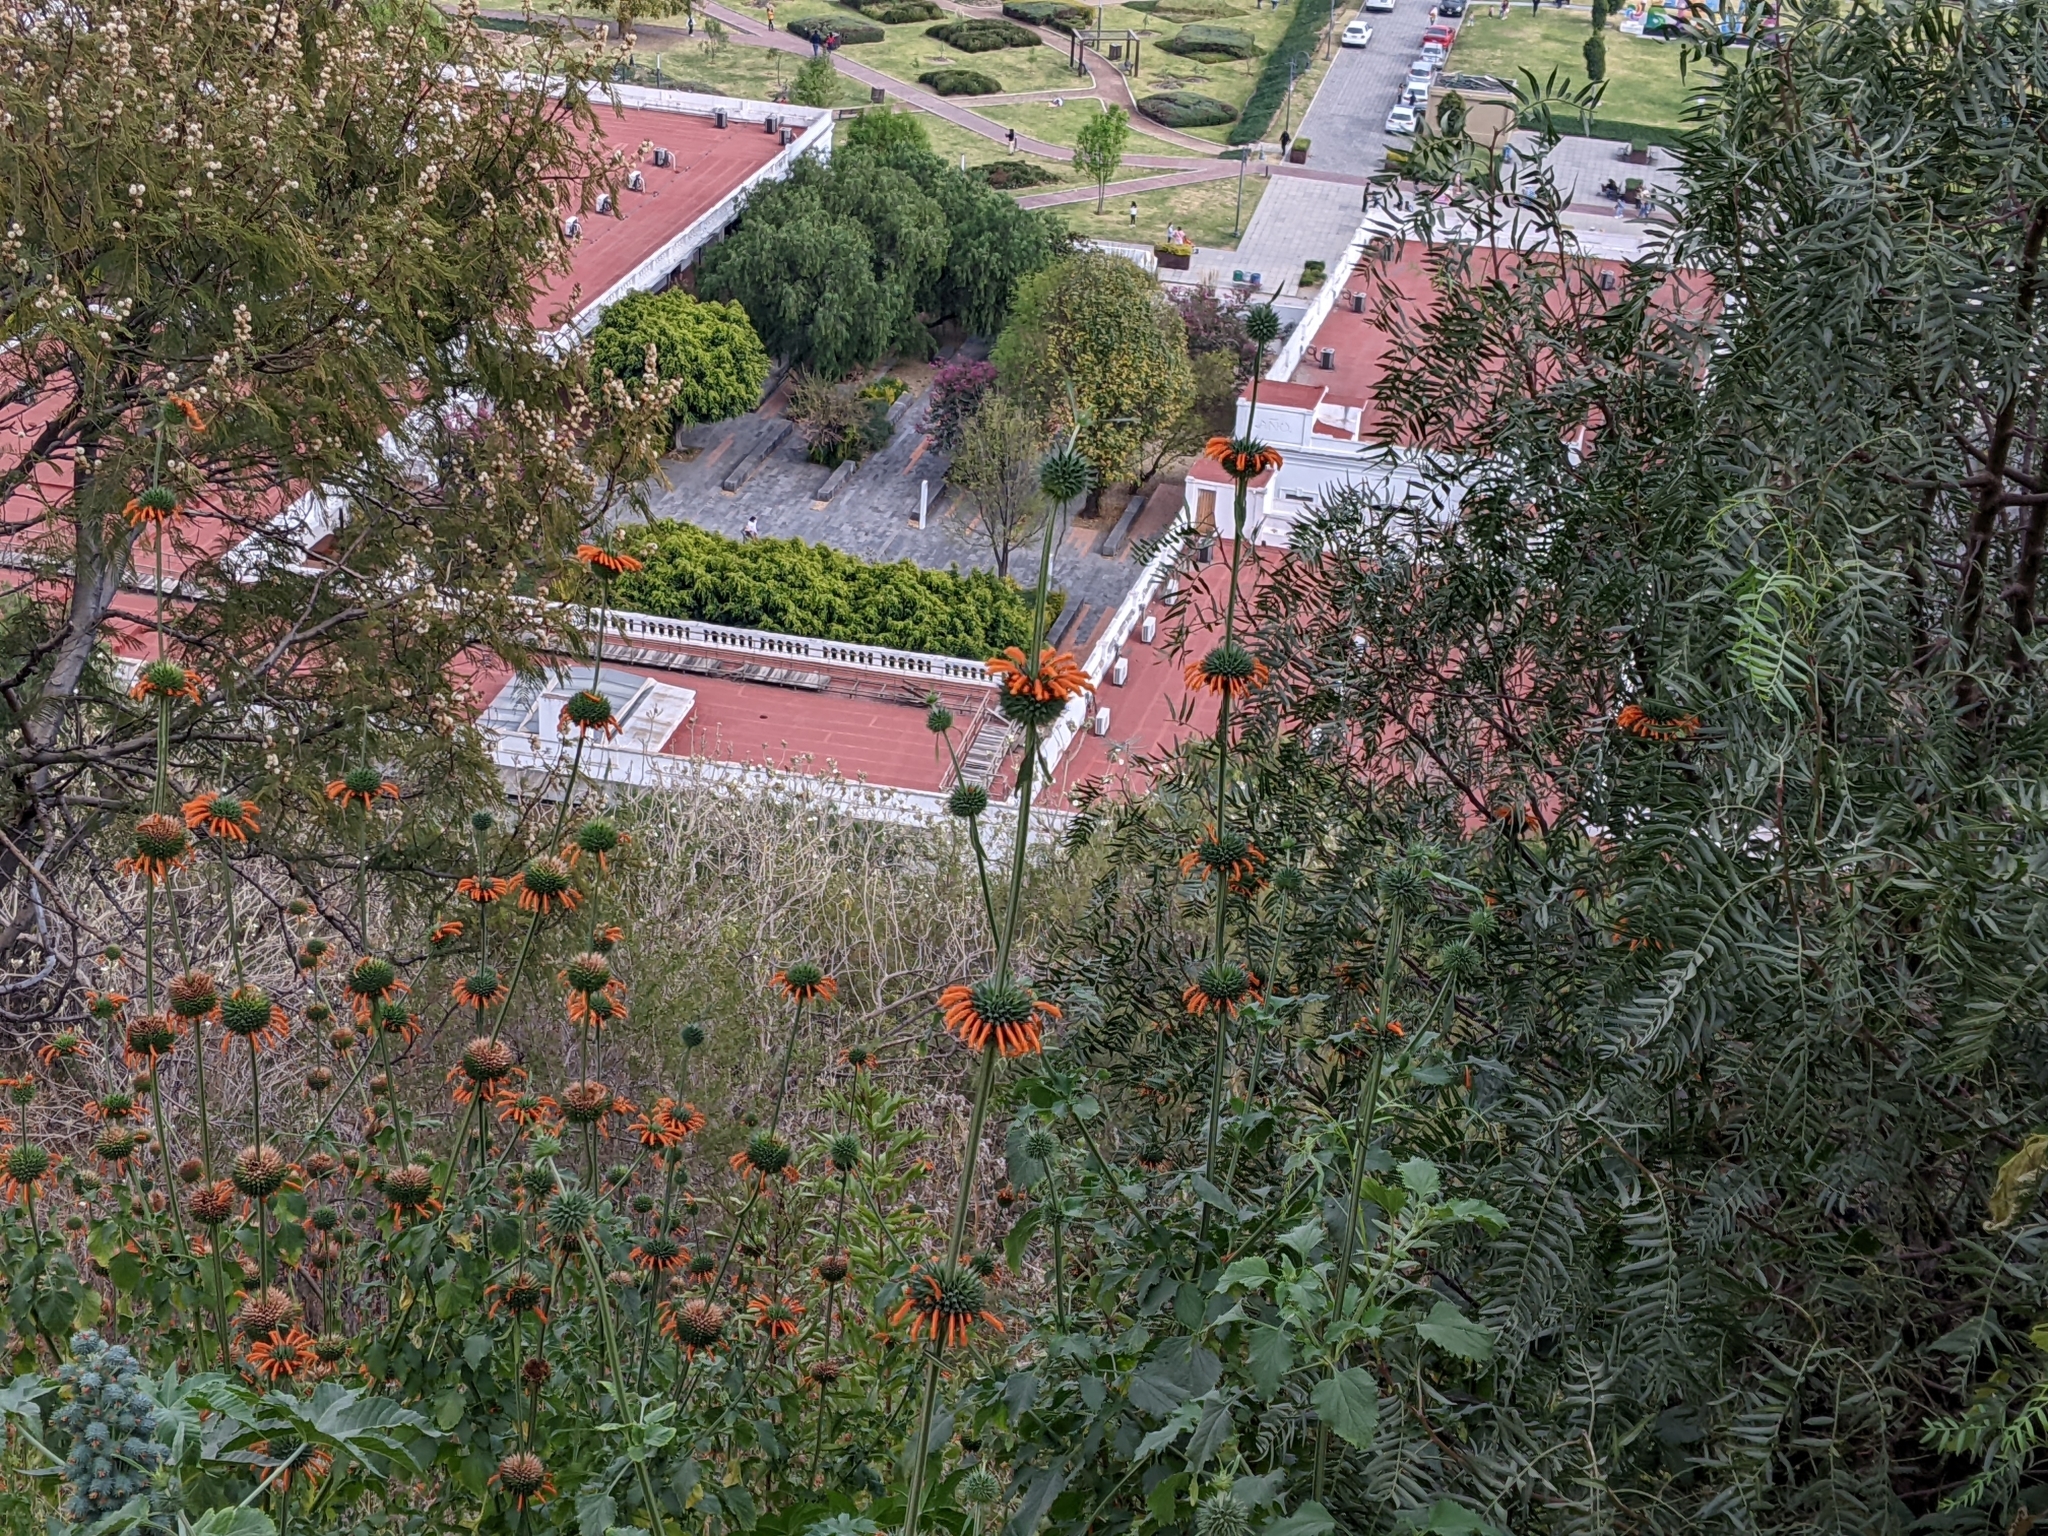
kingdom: Plantae
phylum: Tracheophyta
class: Magnoliopsida
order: Lamiales
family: Lamiaceae
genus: Leonotis
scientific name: Leonotis nepetifolia
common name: Christmas candlestick
